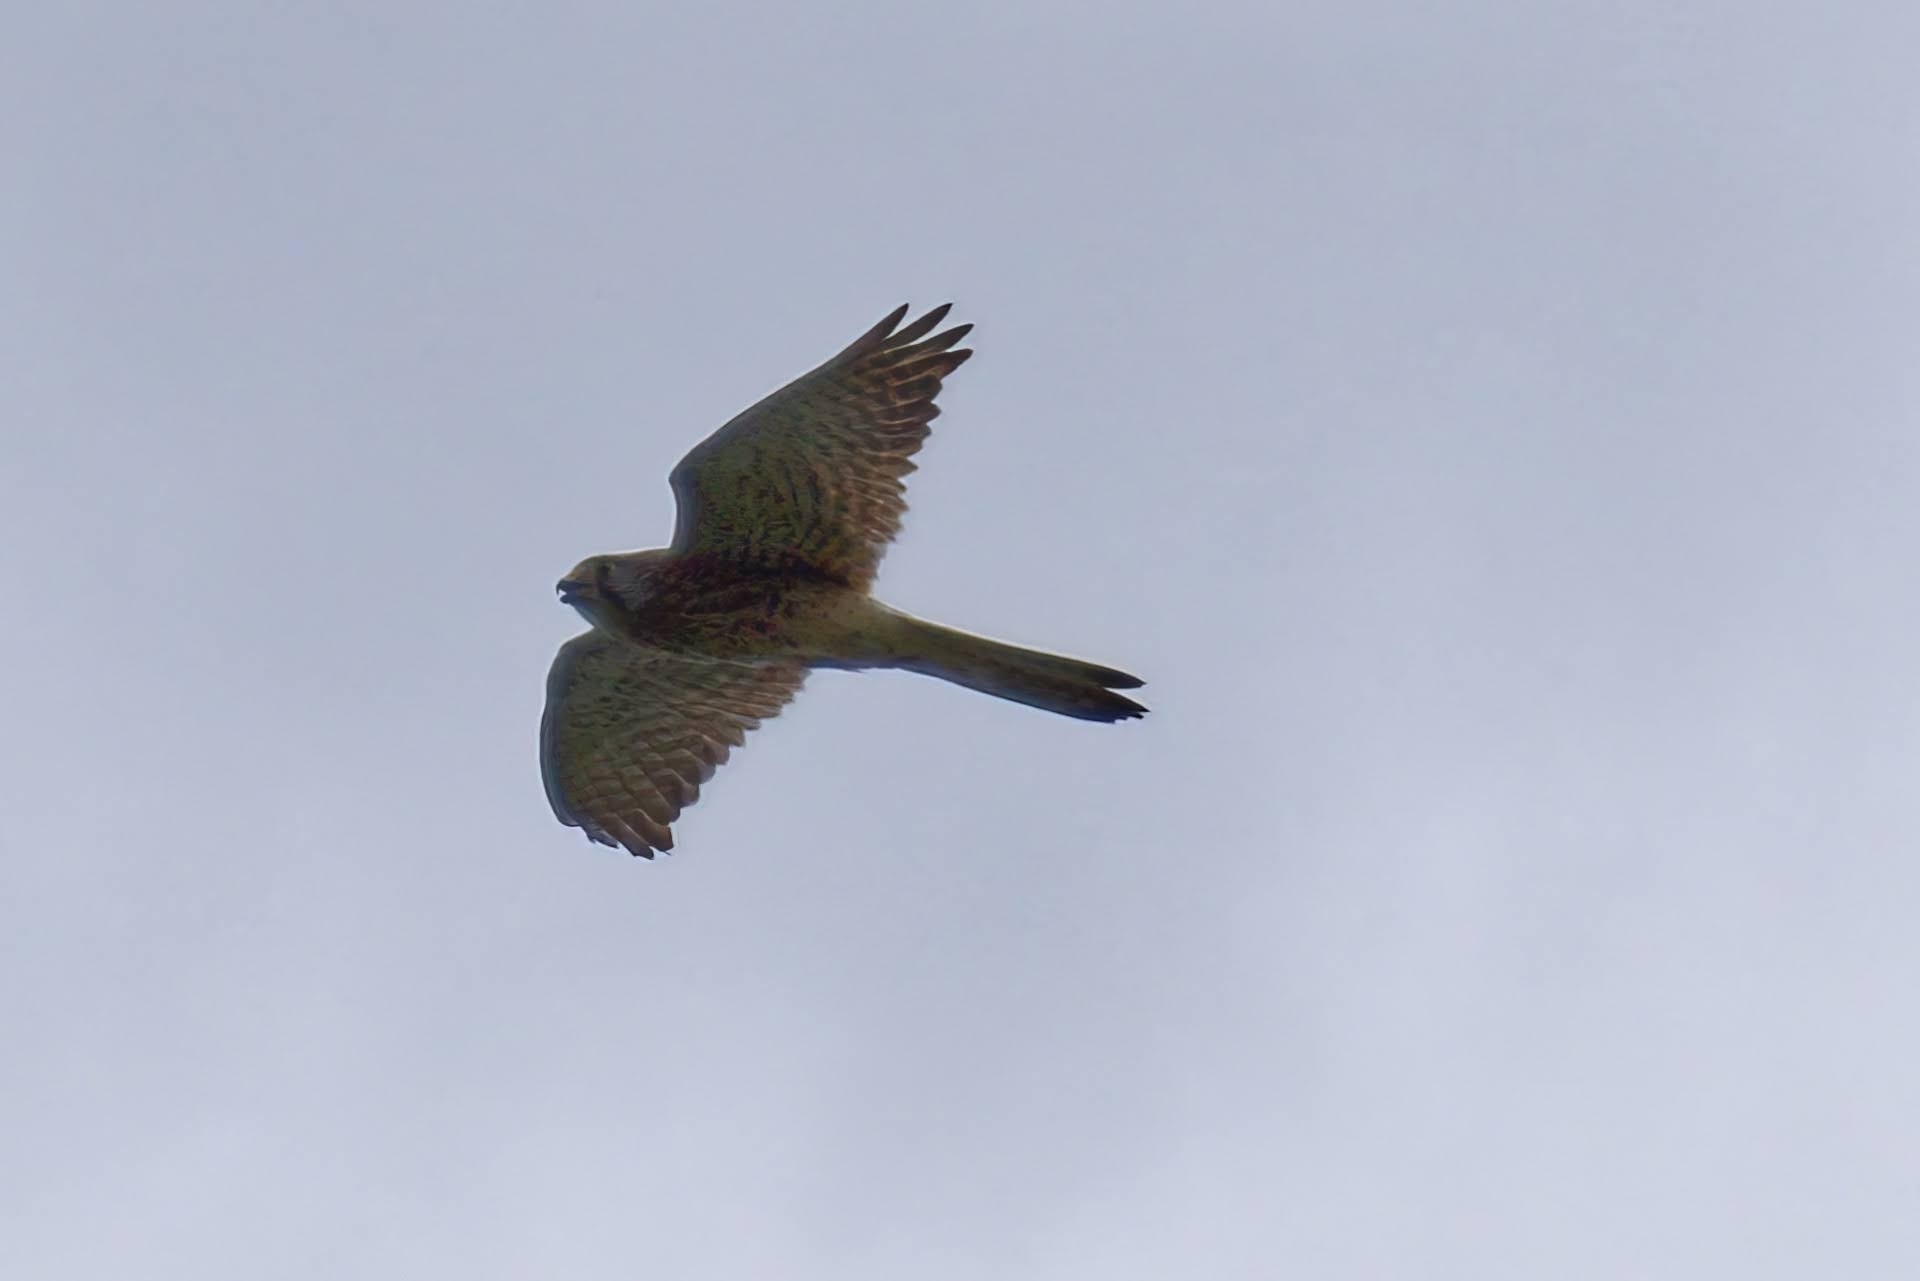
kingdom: Animalia
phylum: Chordata
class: Aves
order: Falconiformes
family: Falconidae
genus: Falco
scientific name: Falco tinnunculus
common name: Common kestrel
